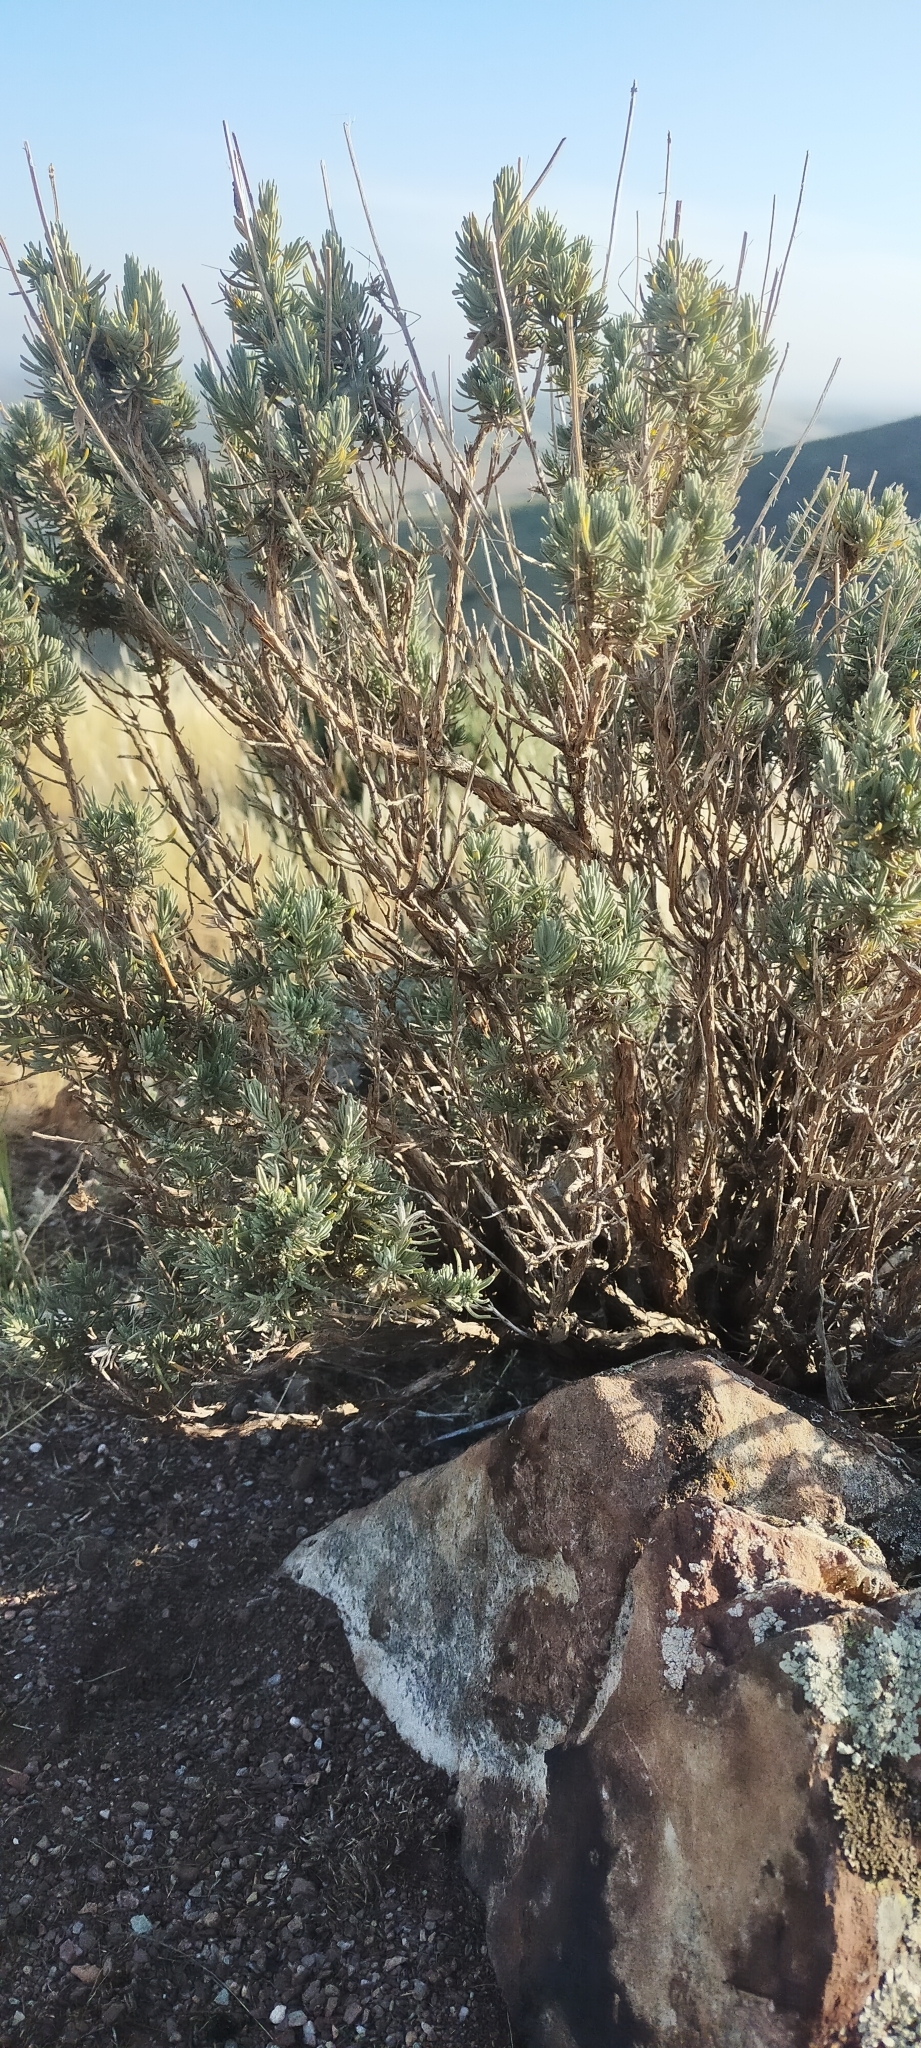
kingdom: Plantae
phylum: Tracheophyta
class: Magnoliopsida
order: Lamiales
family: Lamiaceae
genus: Lavandula
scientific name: Lavandula pedunculata
